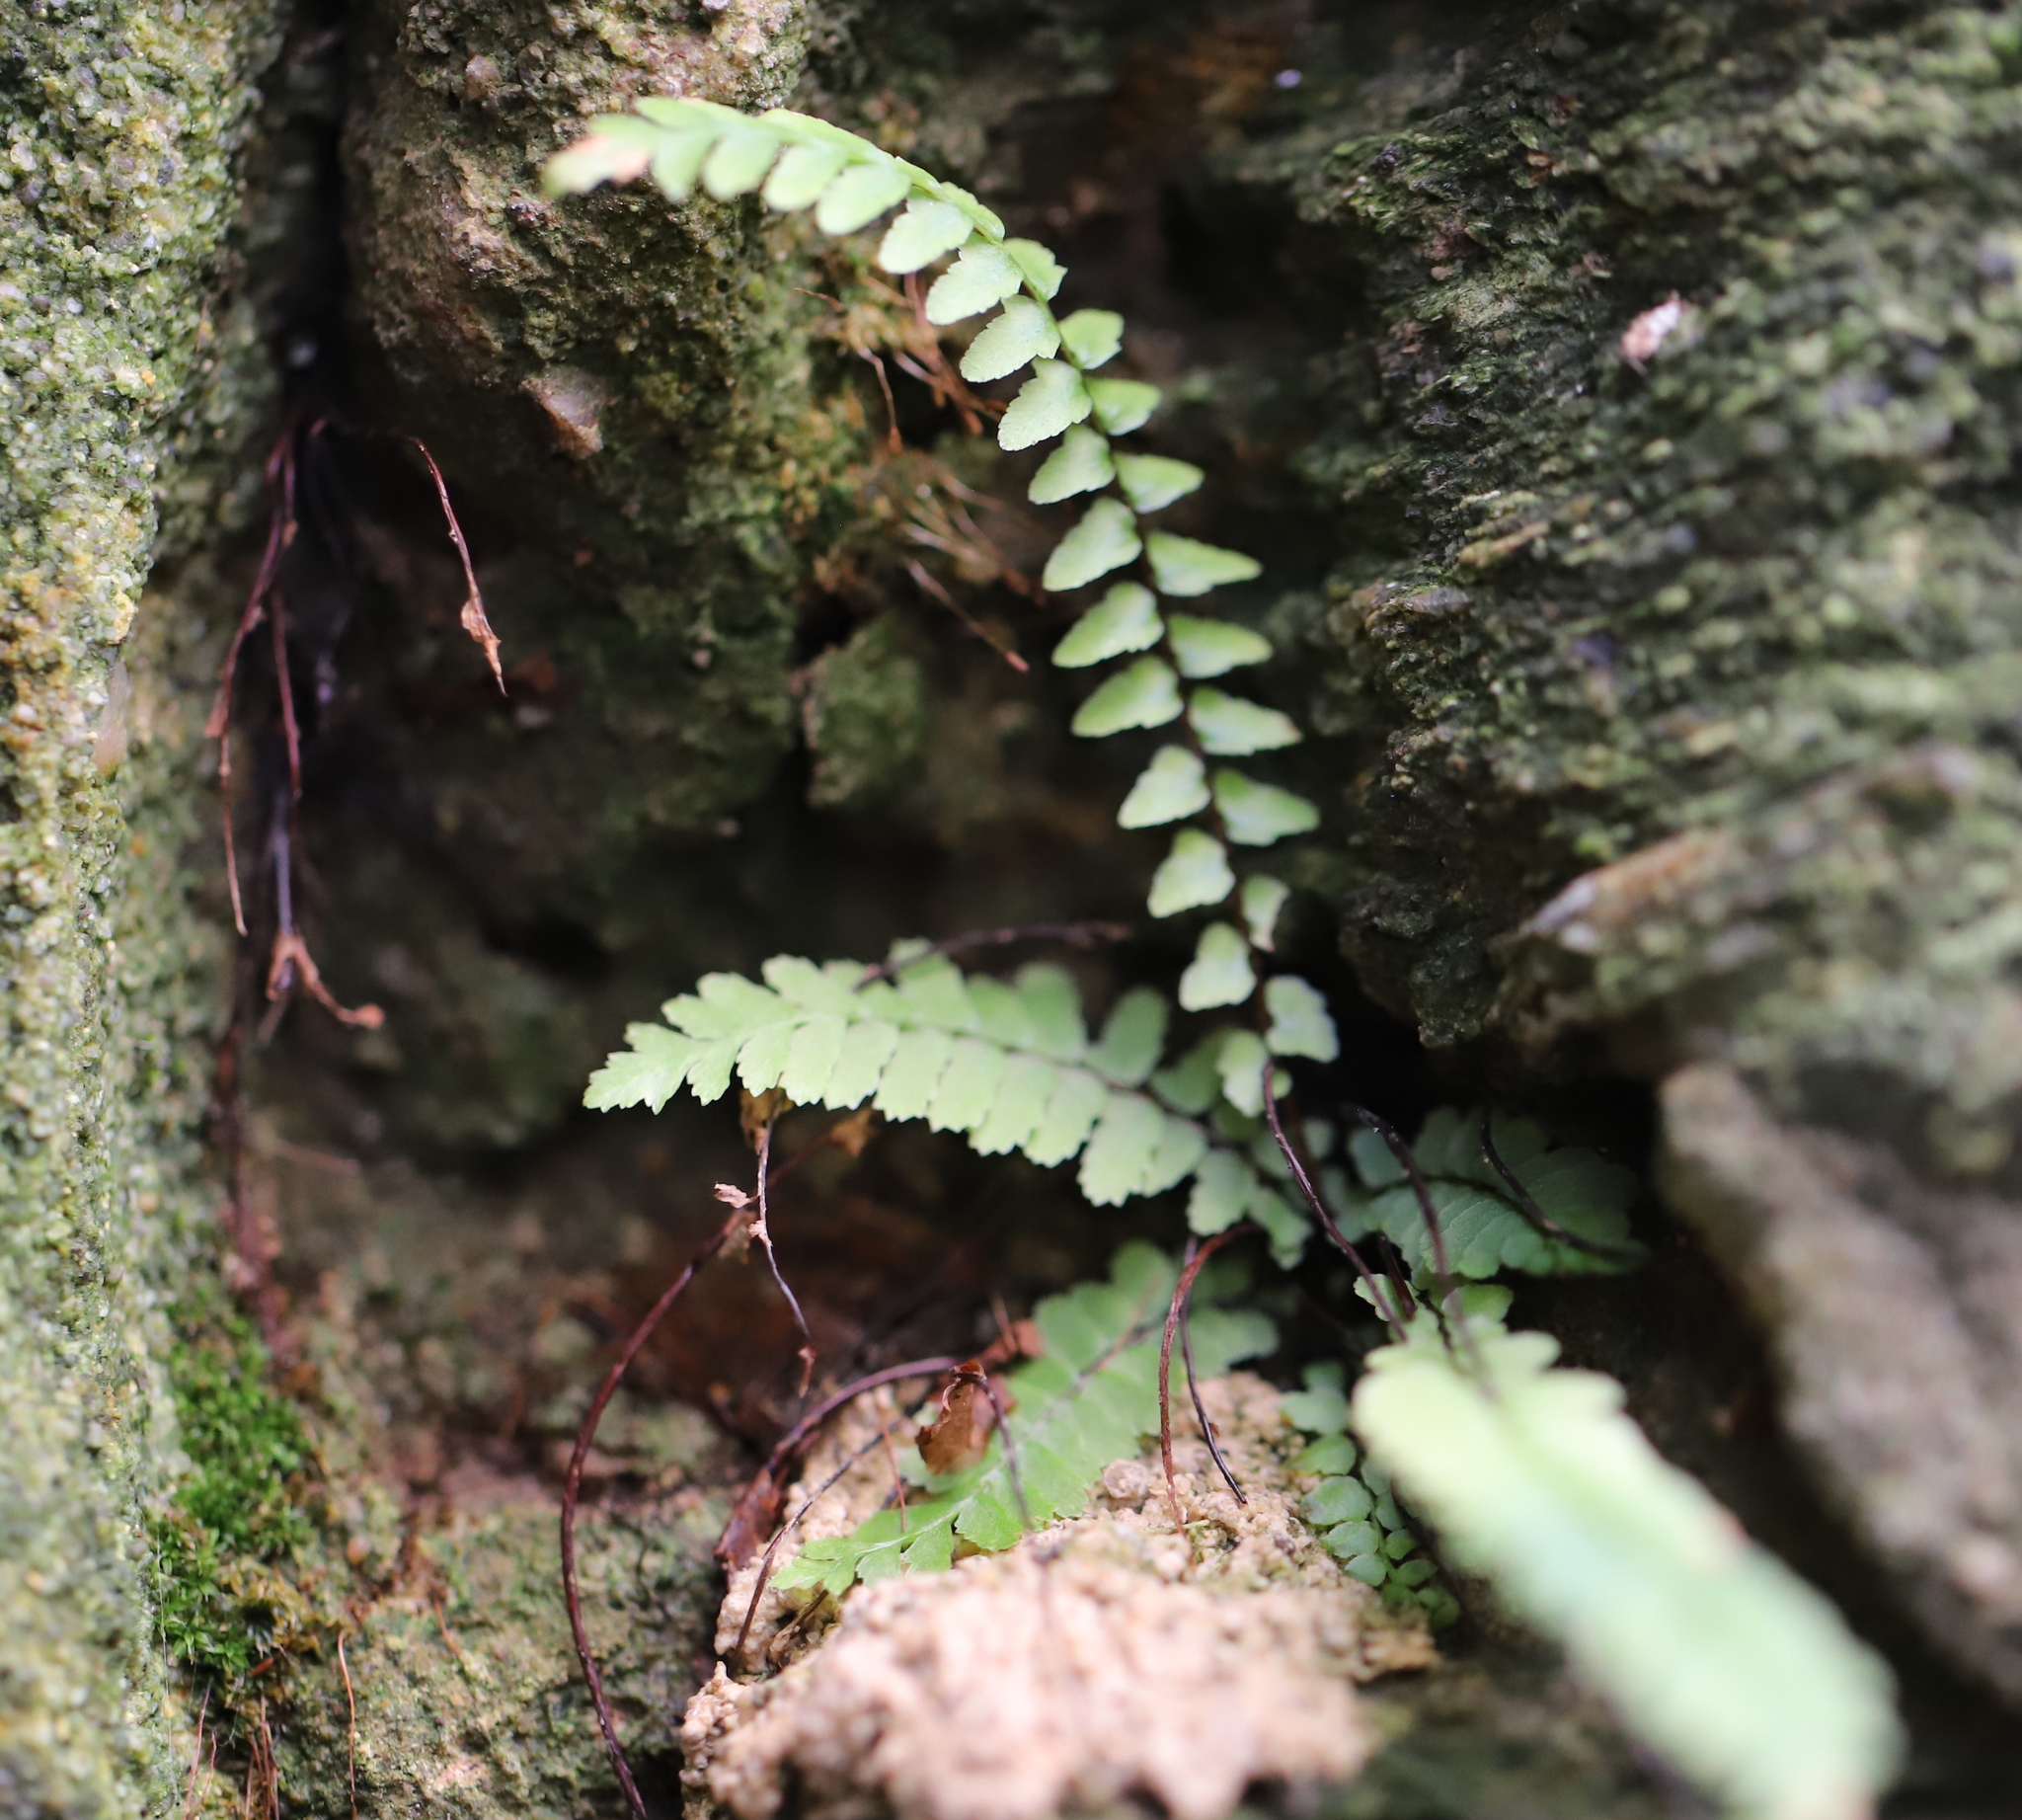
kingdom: Plantae
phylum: Tracheophyta
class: Polypodiopsida
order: Polypodiales
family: Aspleniaceae
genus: Asplenium
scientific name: Asplenium platyneuron
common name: Ebony spleenwort
